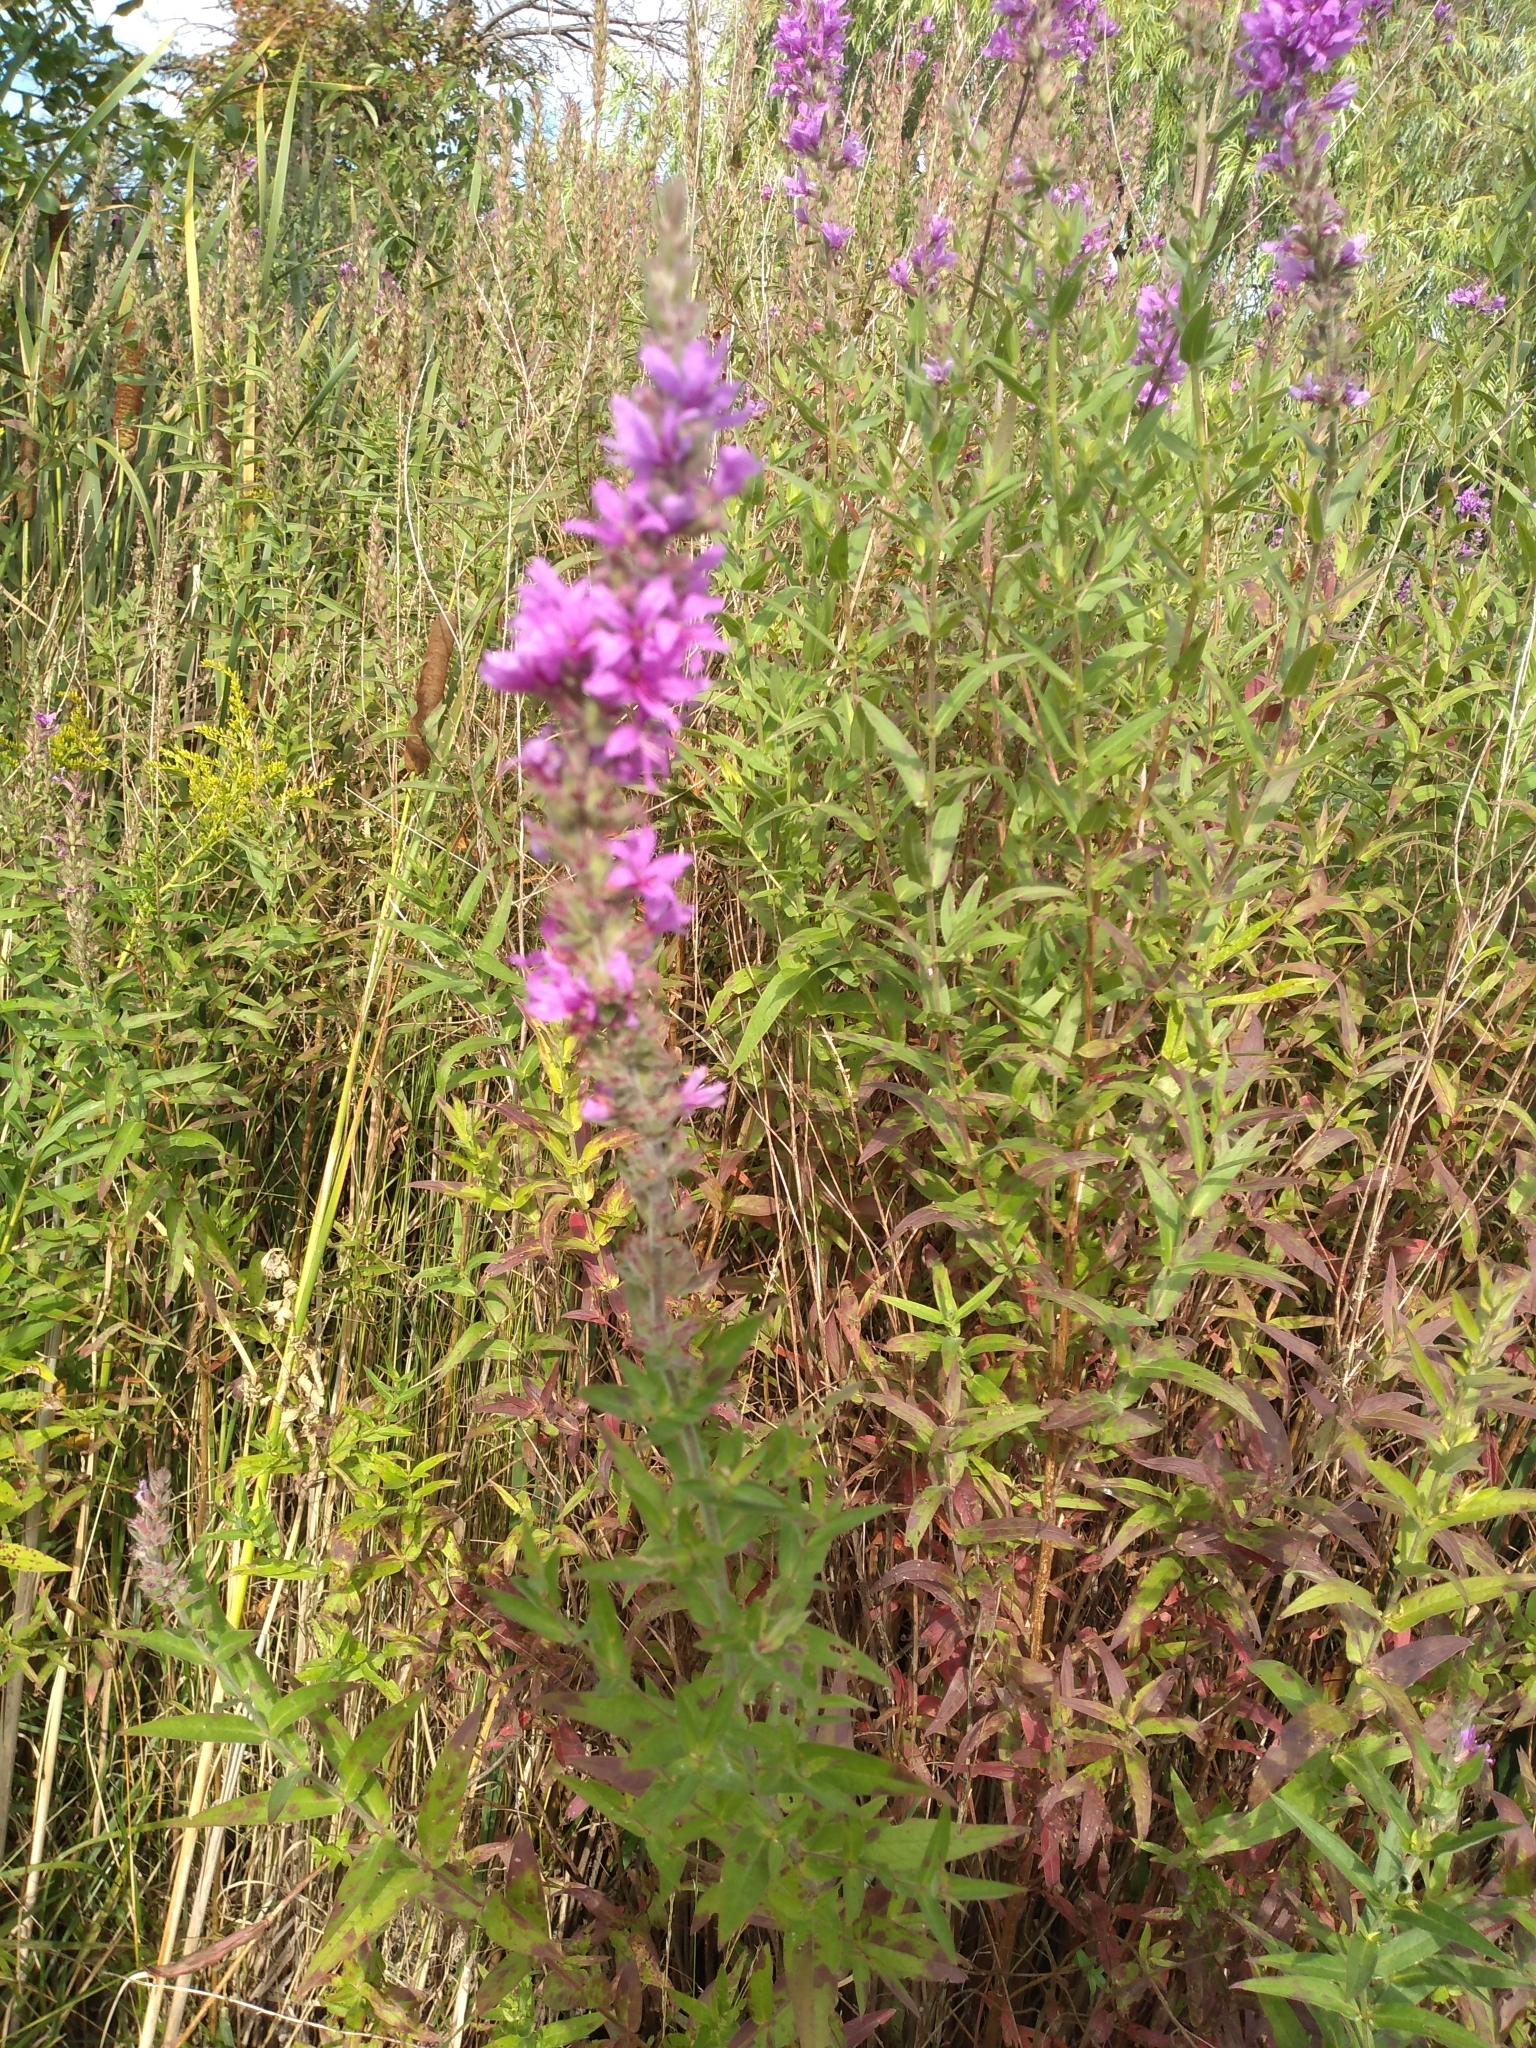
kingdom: Plantae
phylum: Tracheophyta
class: Magnoliopsida
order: Myrtales
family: Lythraceae
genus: Lythrum
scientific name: Lythrum salicaria
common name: Purple loosestrife
